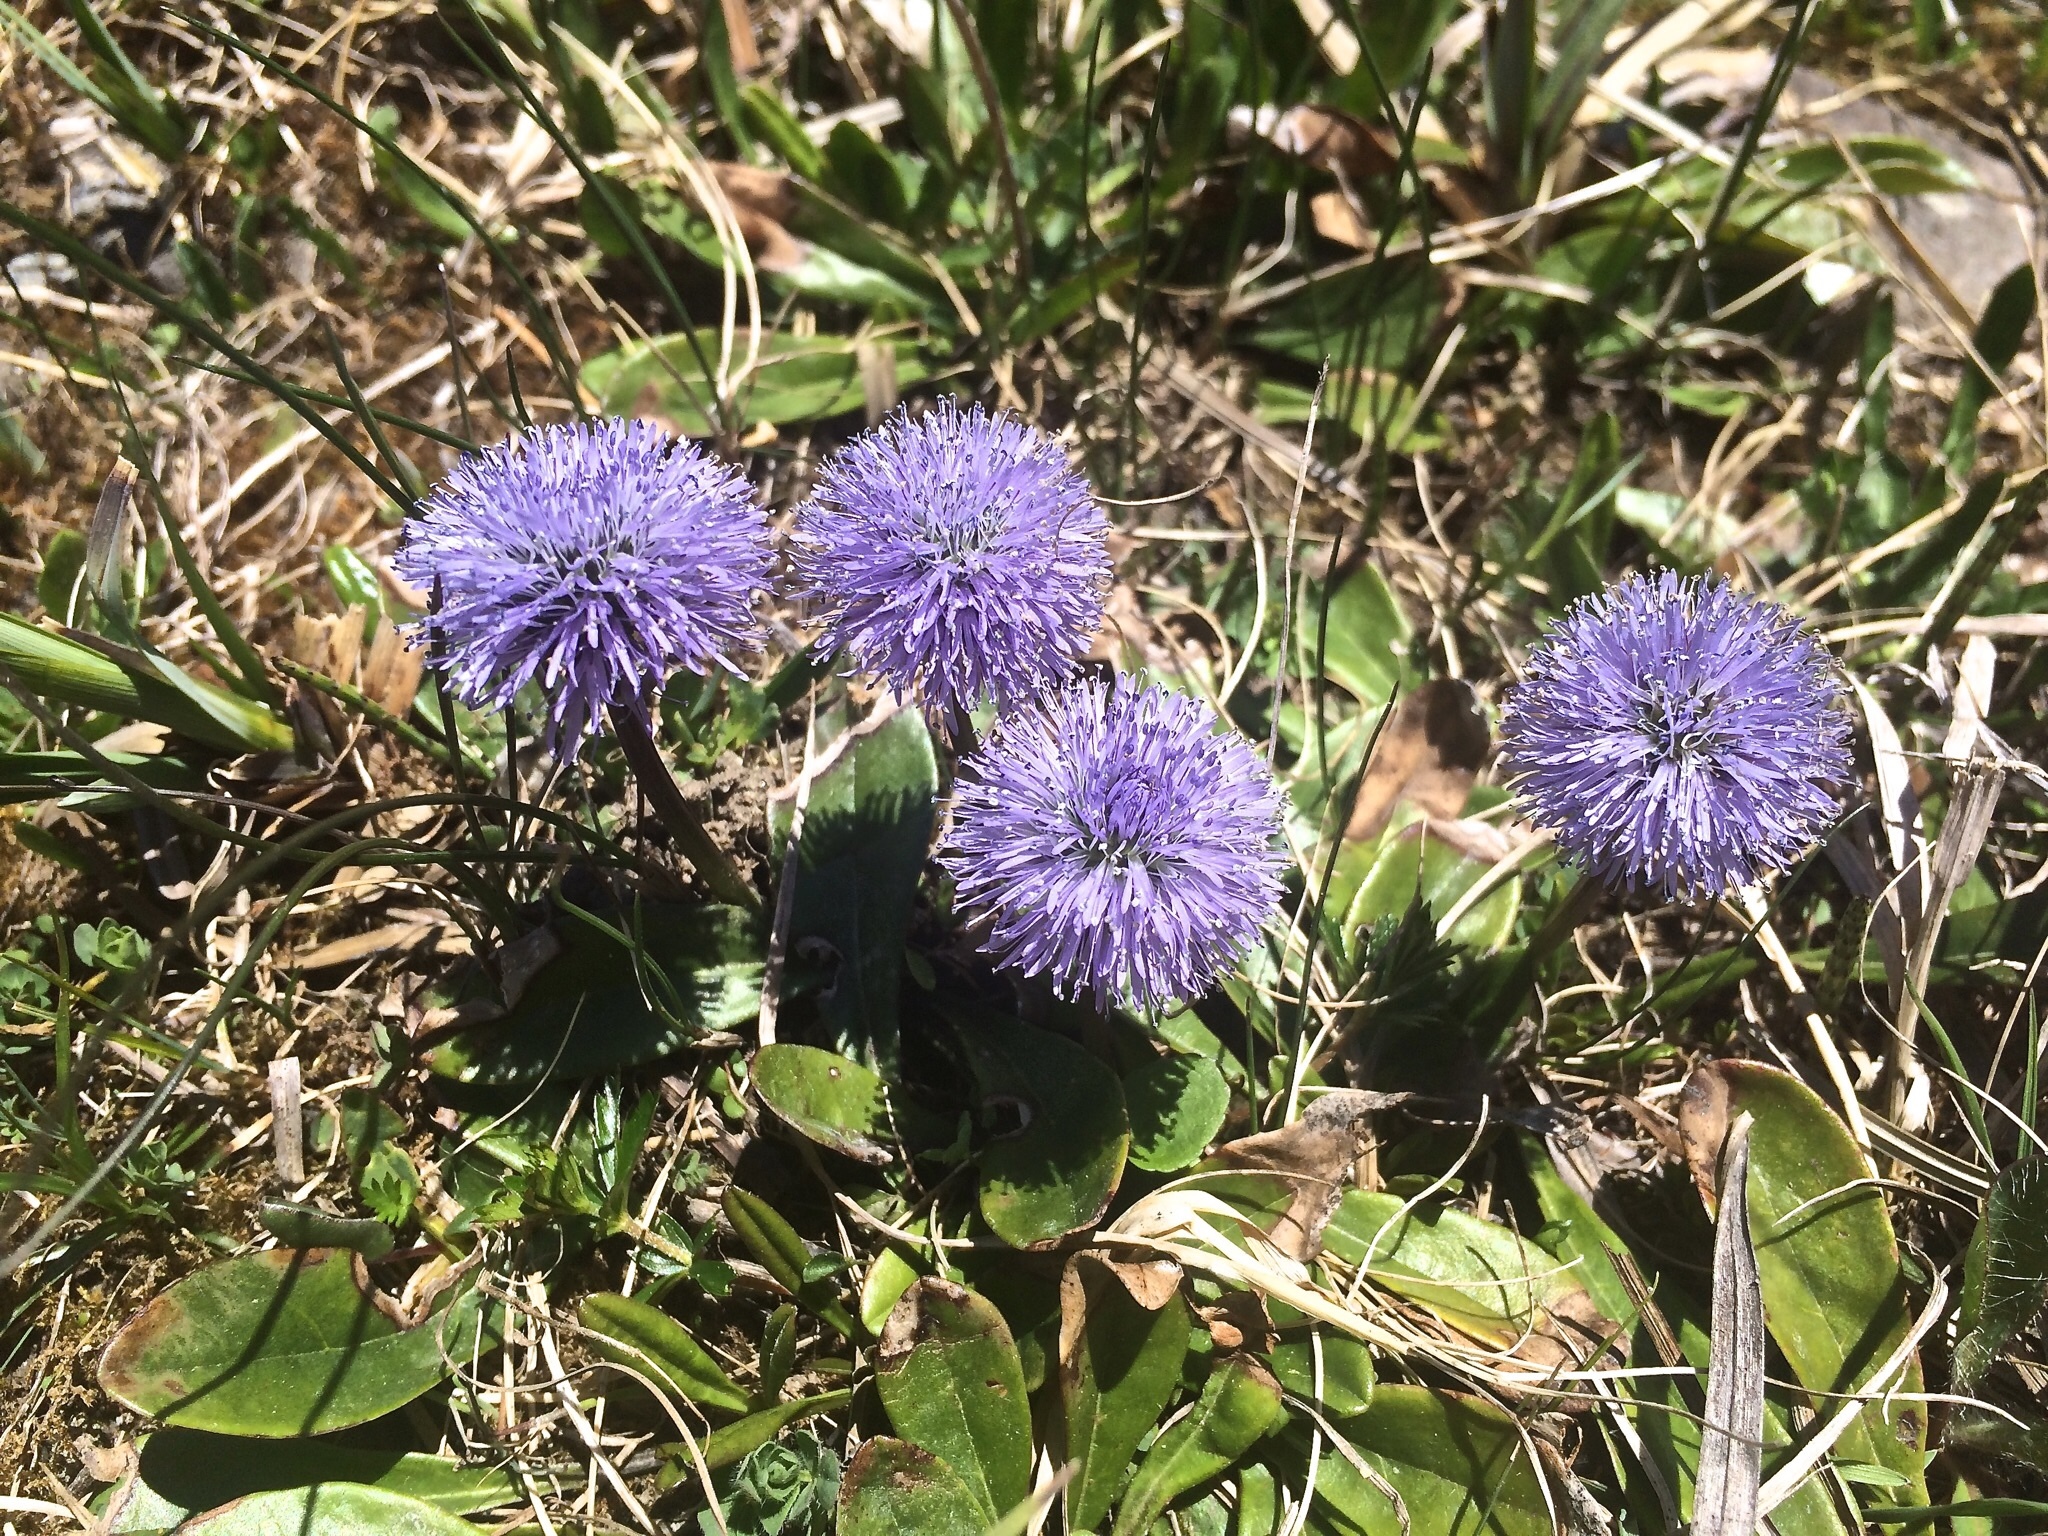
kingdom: Plantae
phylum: Tracheophyta
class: Magnoliopsida
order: Lamiales
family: Plantaginaceae
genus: Globularia
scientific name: Globularia nudicaulis
